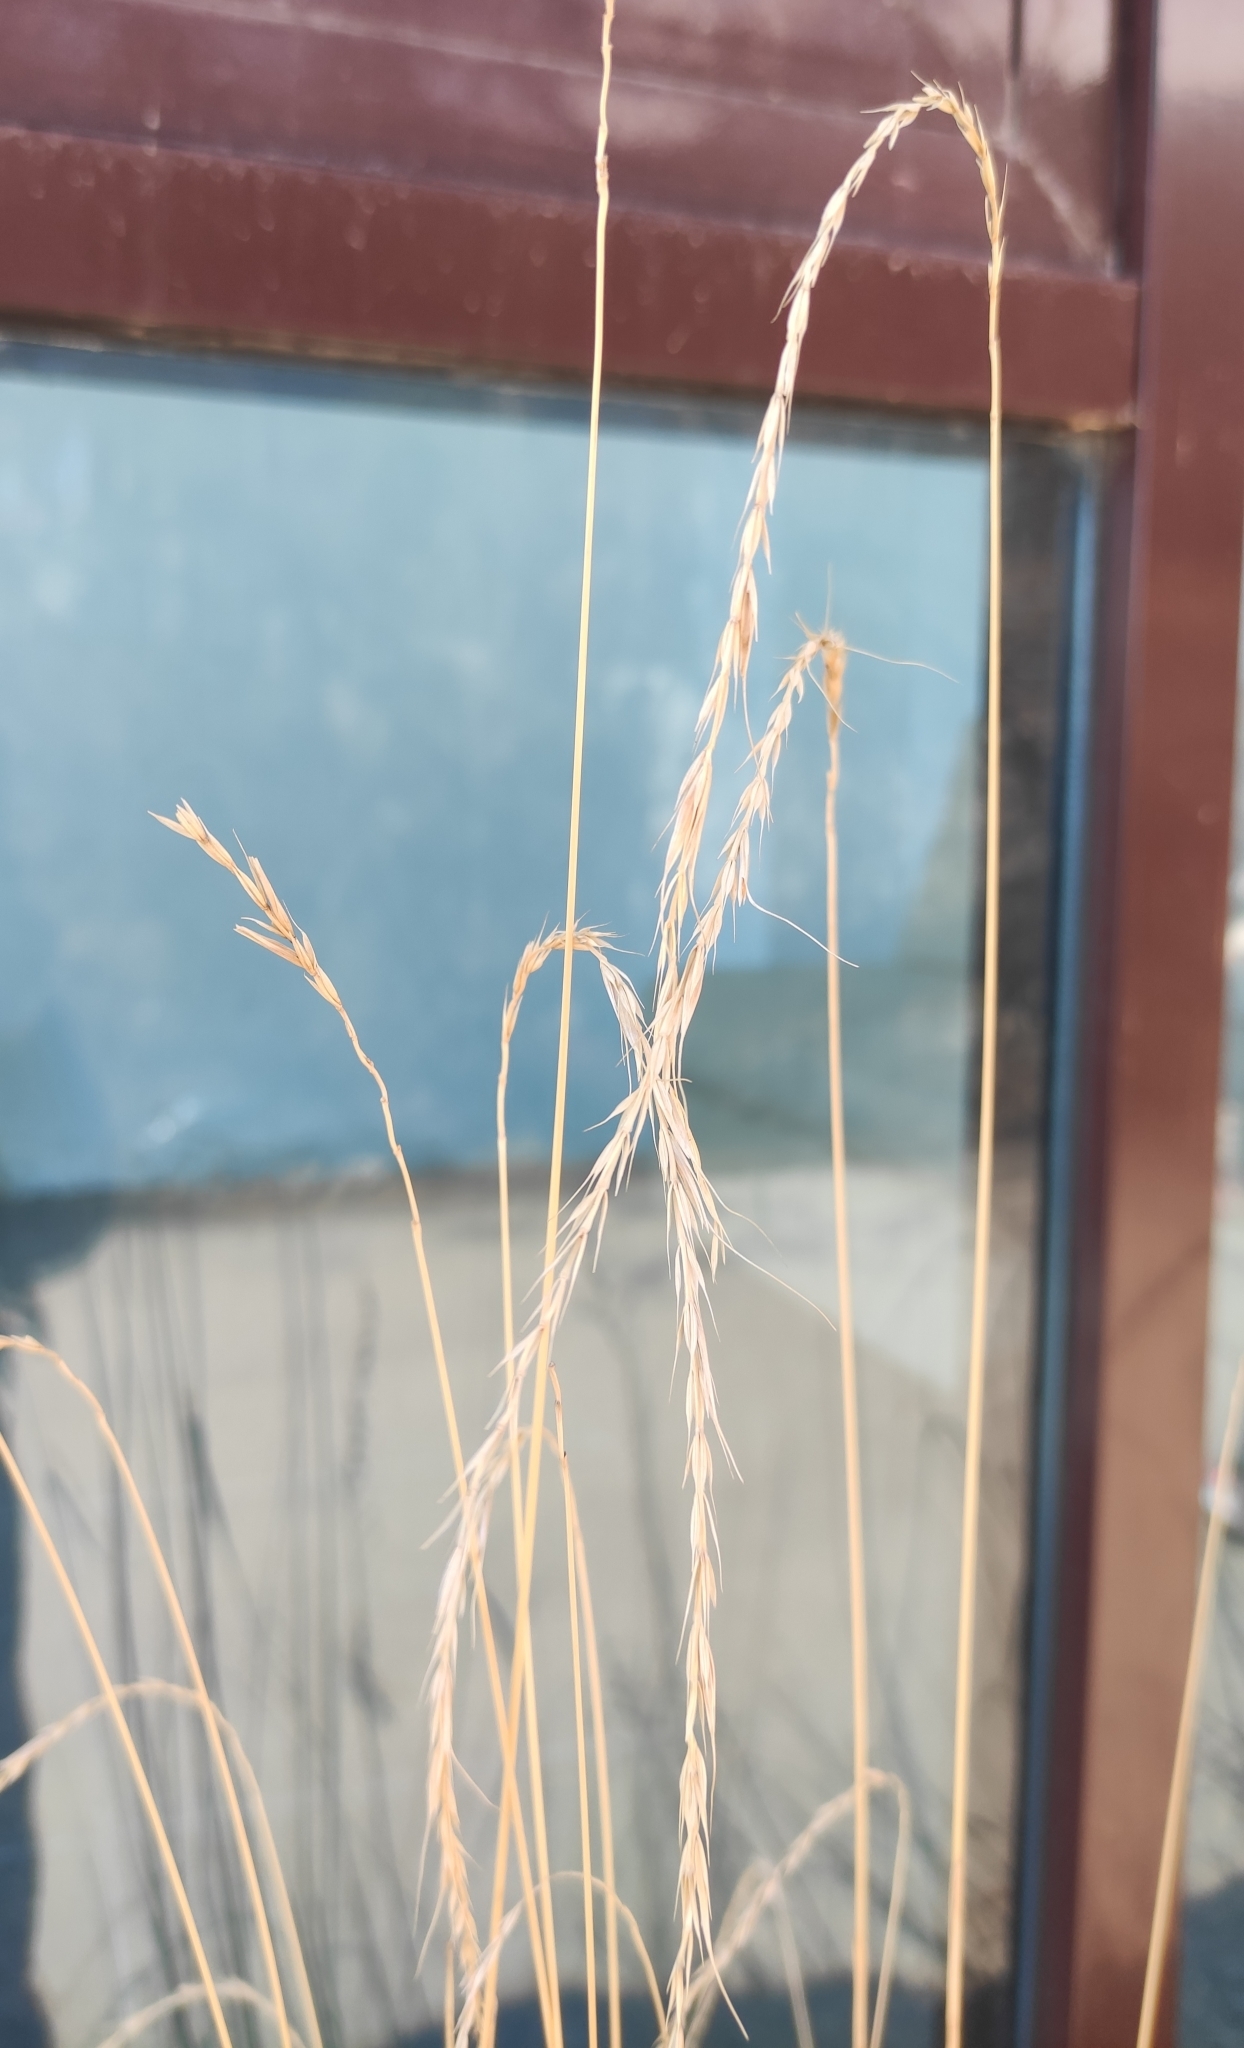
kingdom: Plantae
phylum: Tracheophyta
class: Liliopsida
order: Poales
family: Poaceae
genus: Elymus
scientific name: Elymus sibiricus
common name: Siberian wildrye
